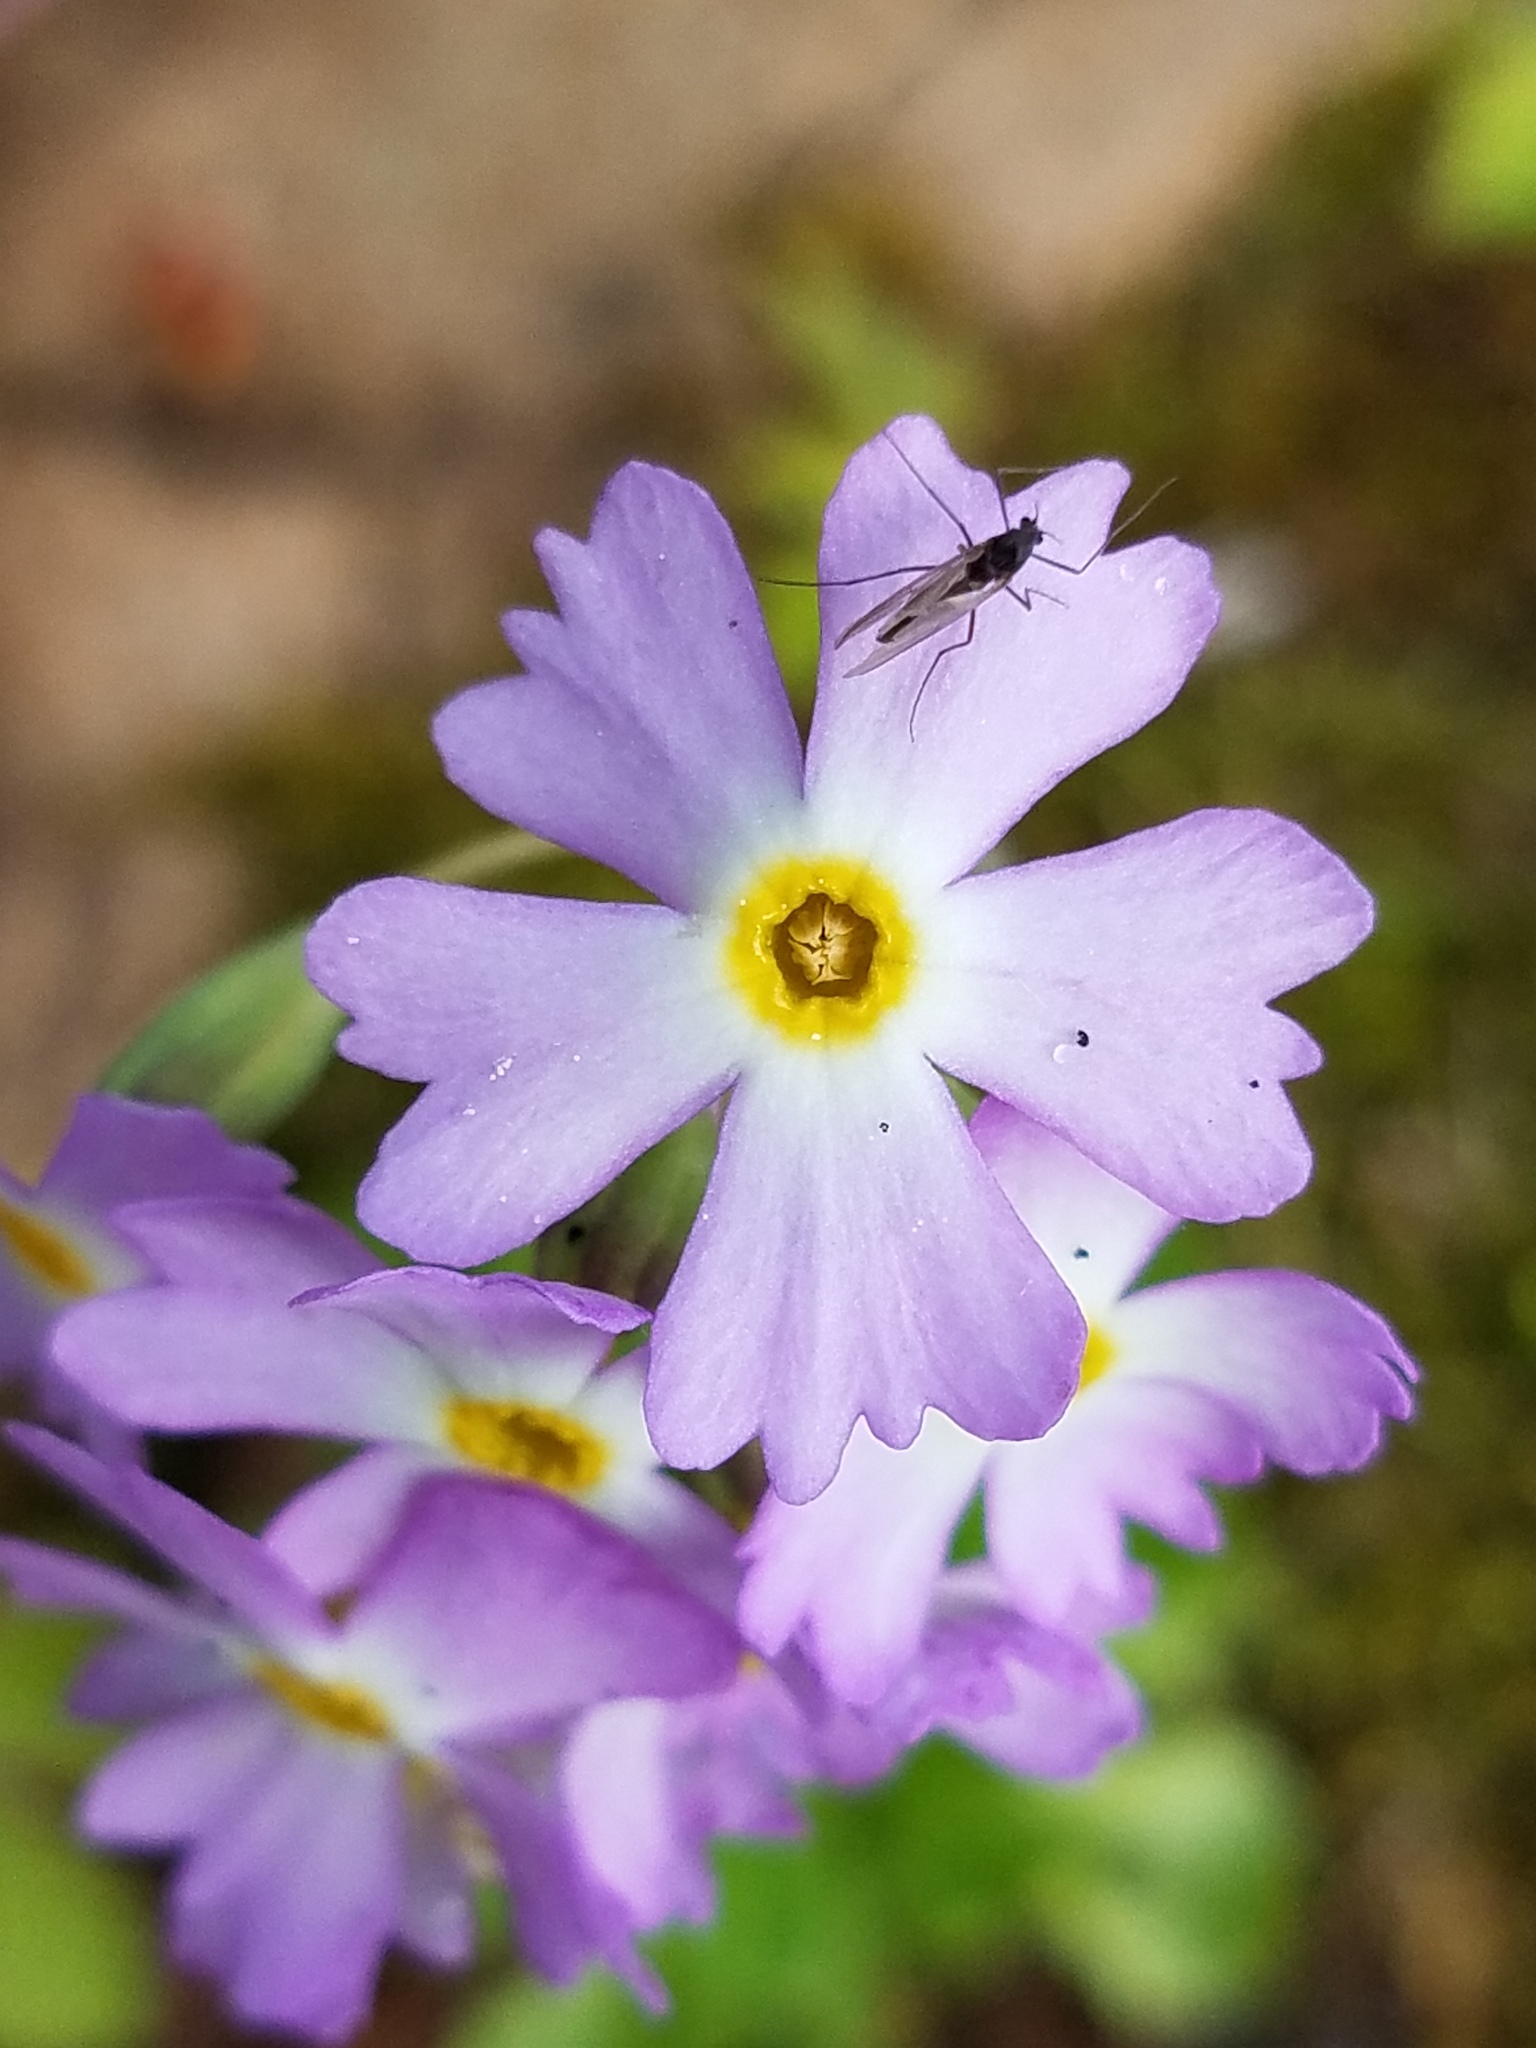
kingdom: Plantae
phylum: Tracheophyta
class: Magnoliopsida
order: Ericales
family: Primulaceae
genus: Primula
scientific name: Primula mistassinica
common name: Bird's-eye primrose
